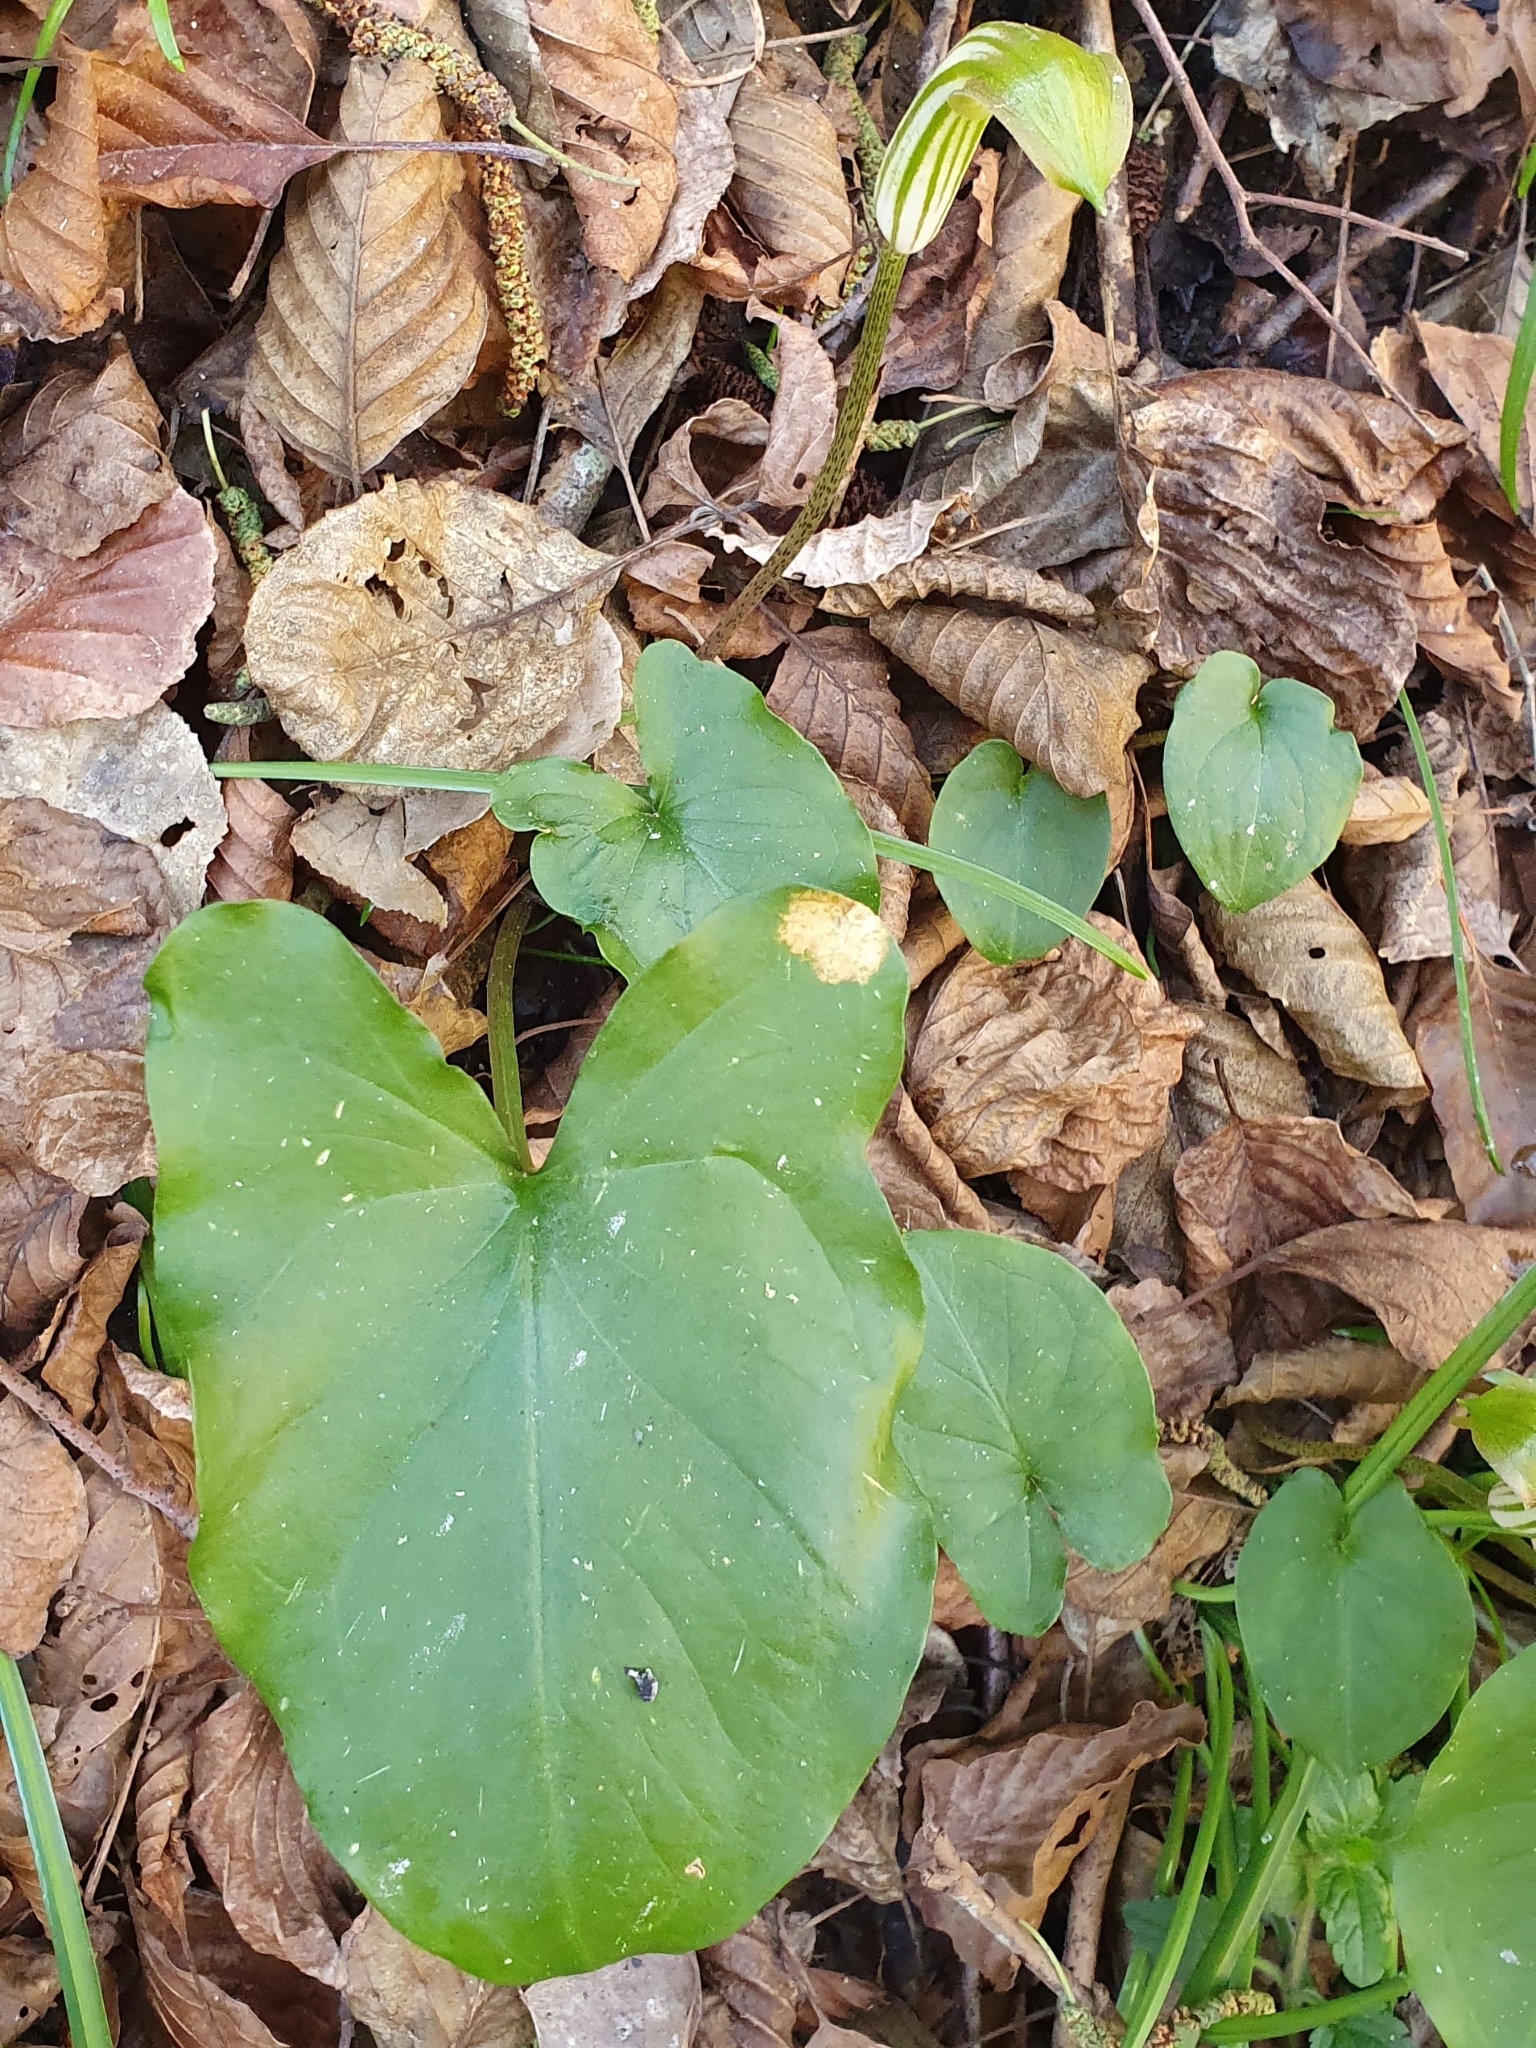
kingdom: Plantae
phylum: Tracheophyta
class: Liliopsida
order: Alismatales
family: Araceae
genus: Arisarum
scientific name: Arisarum vulgare
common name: Common arisarum
